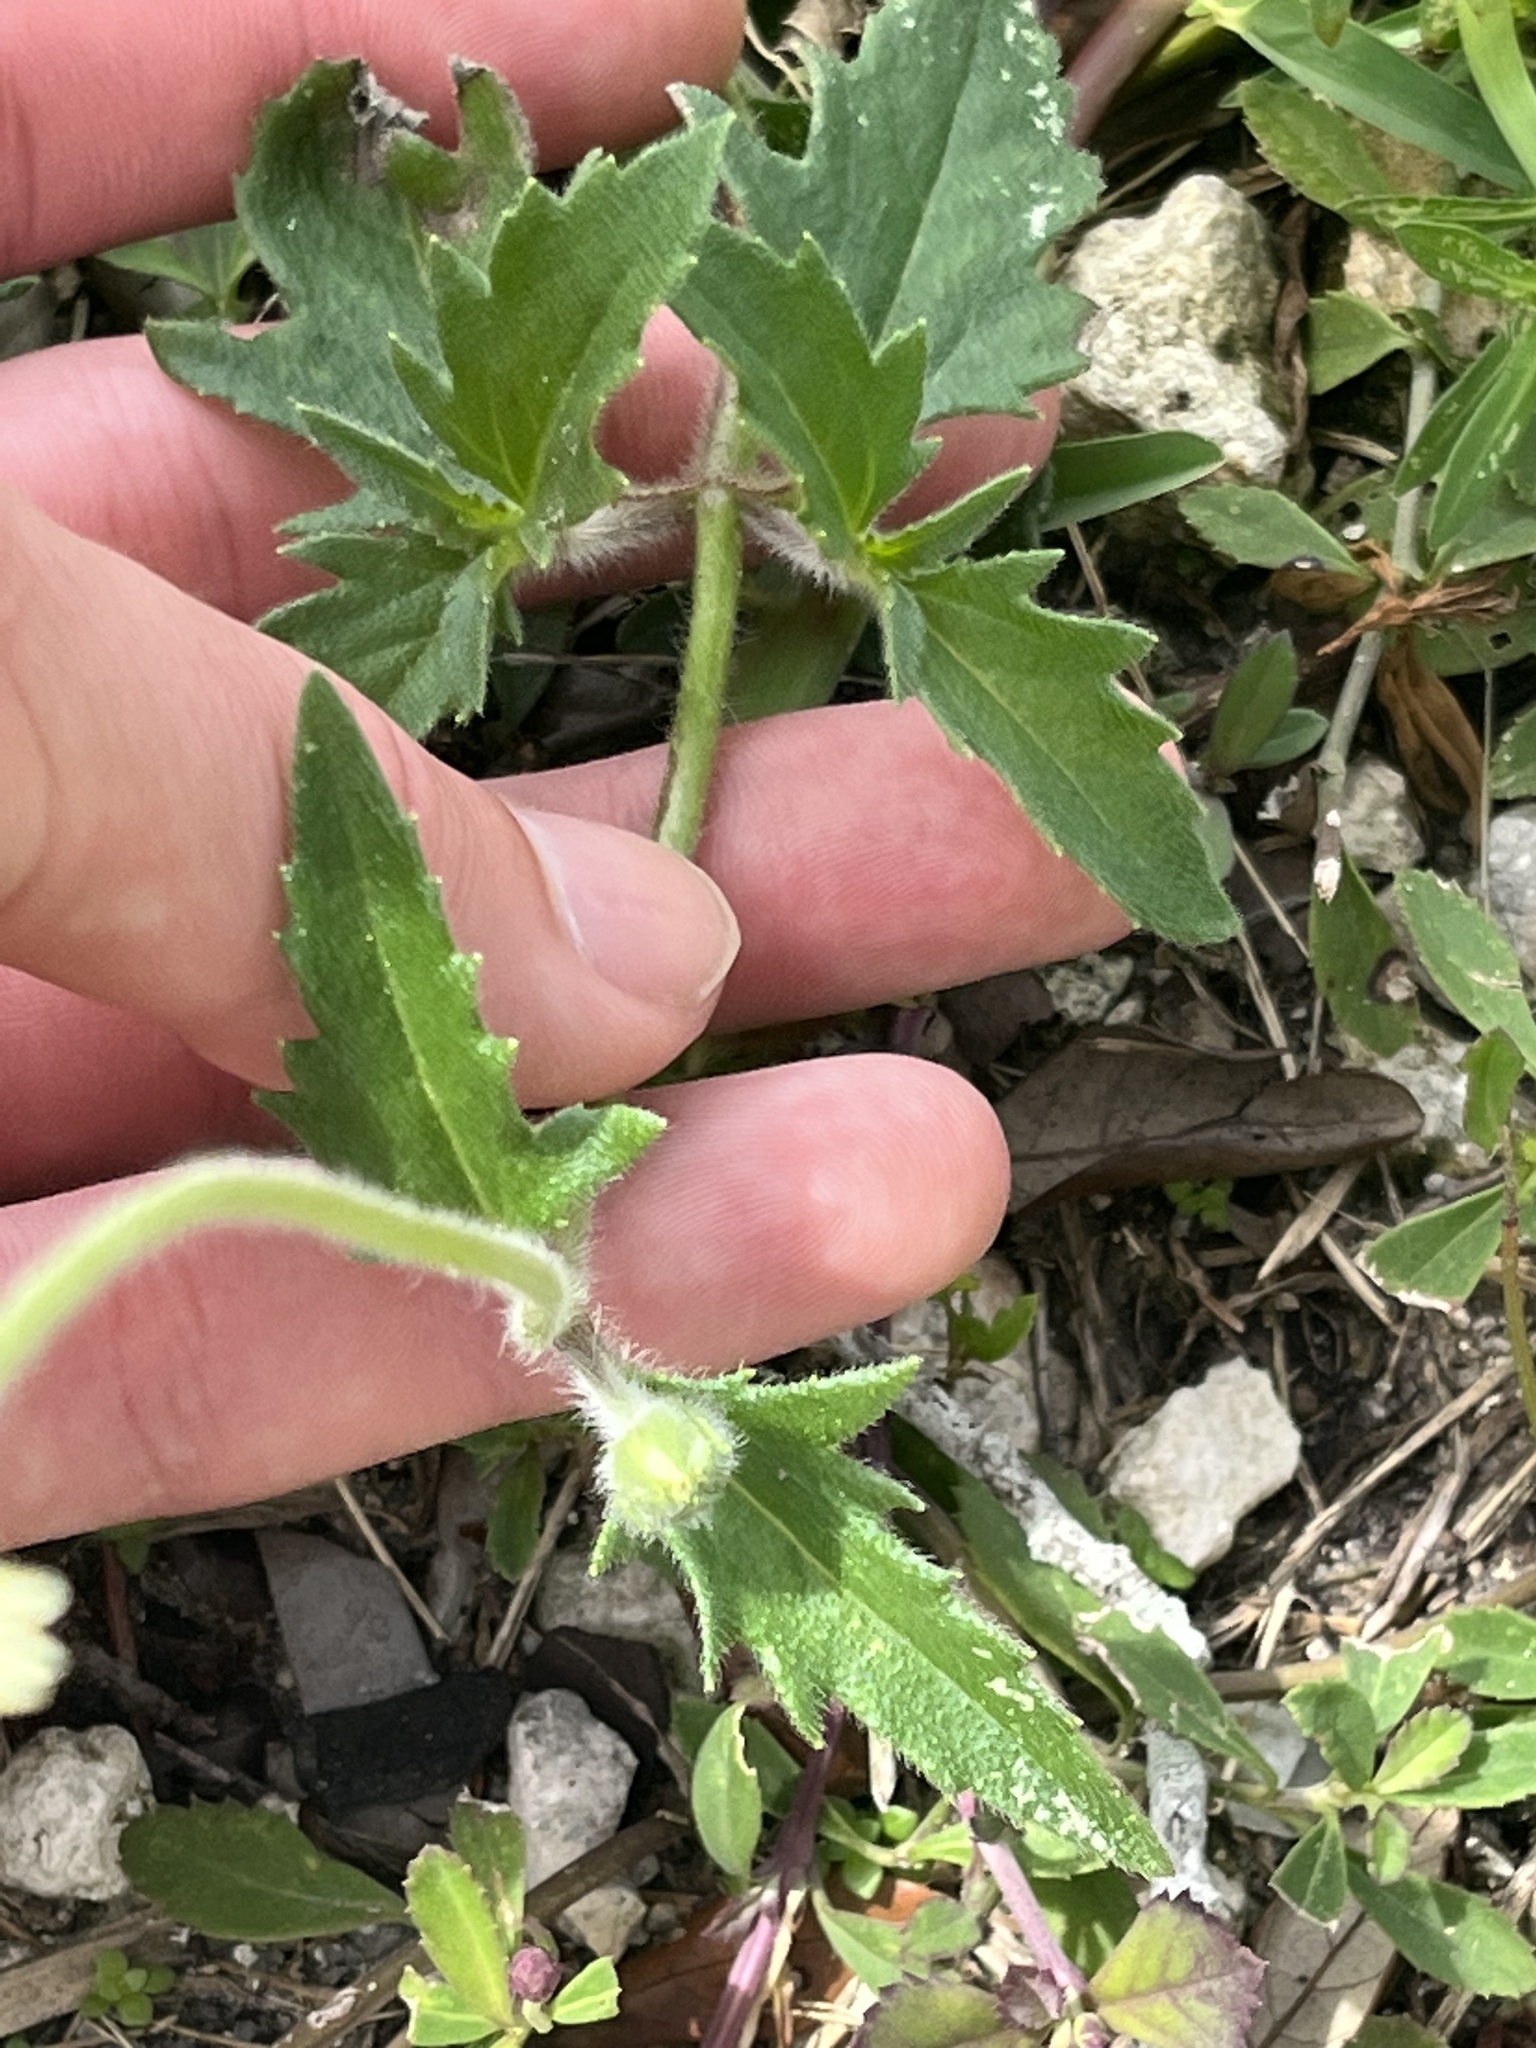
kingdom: Plantae
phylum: Tracheophyta
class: Magnoliopsida
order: Asterales
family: Asteraceae
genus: Tridax
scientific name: Tridax procumbens
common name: Coatbuttons
